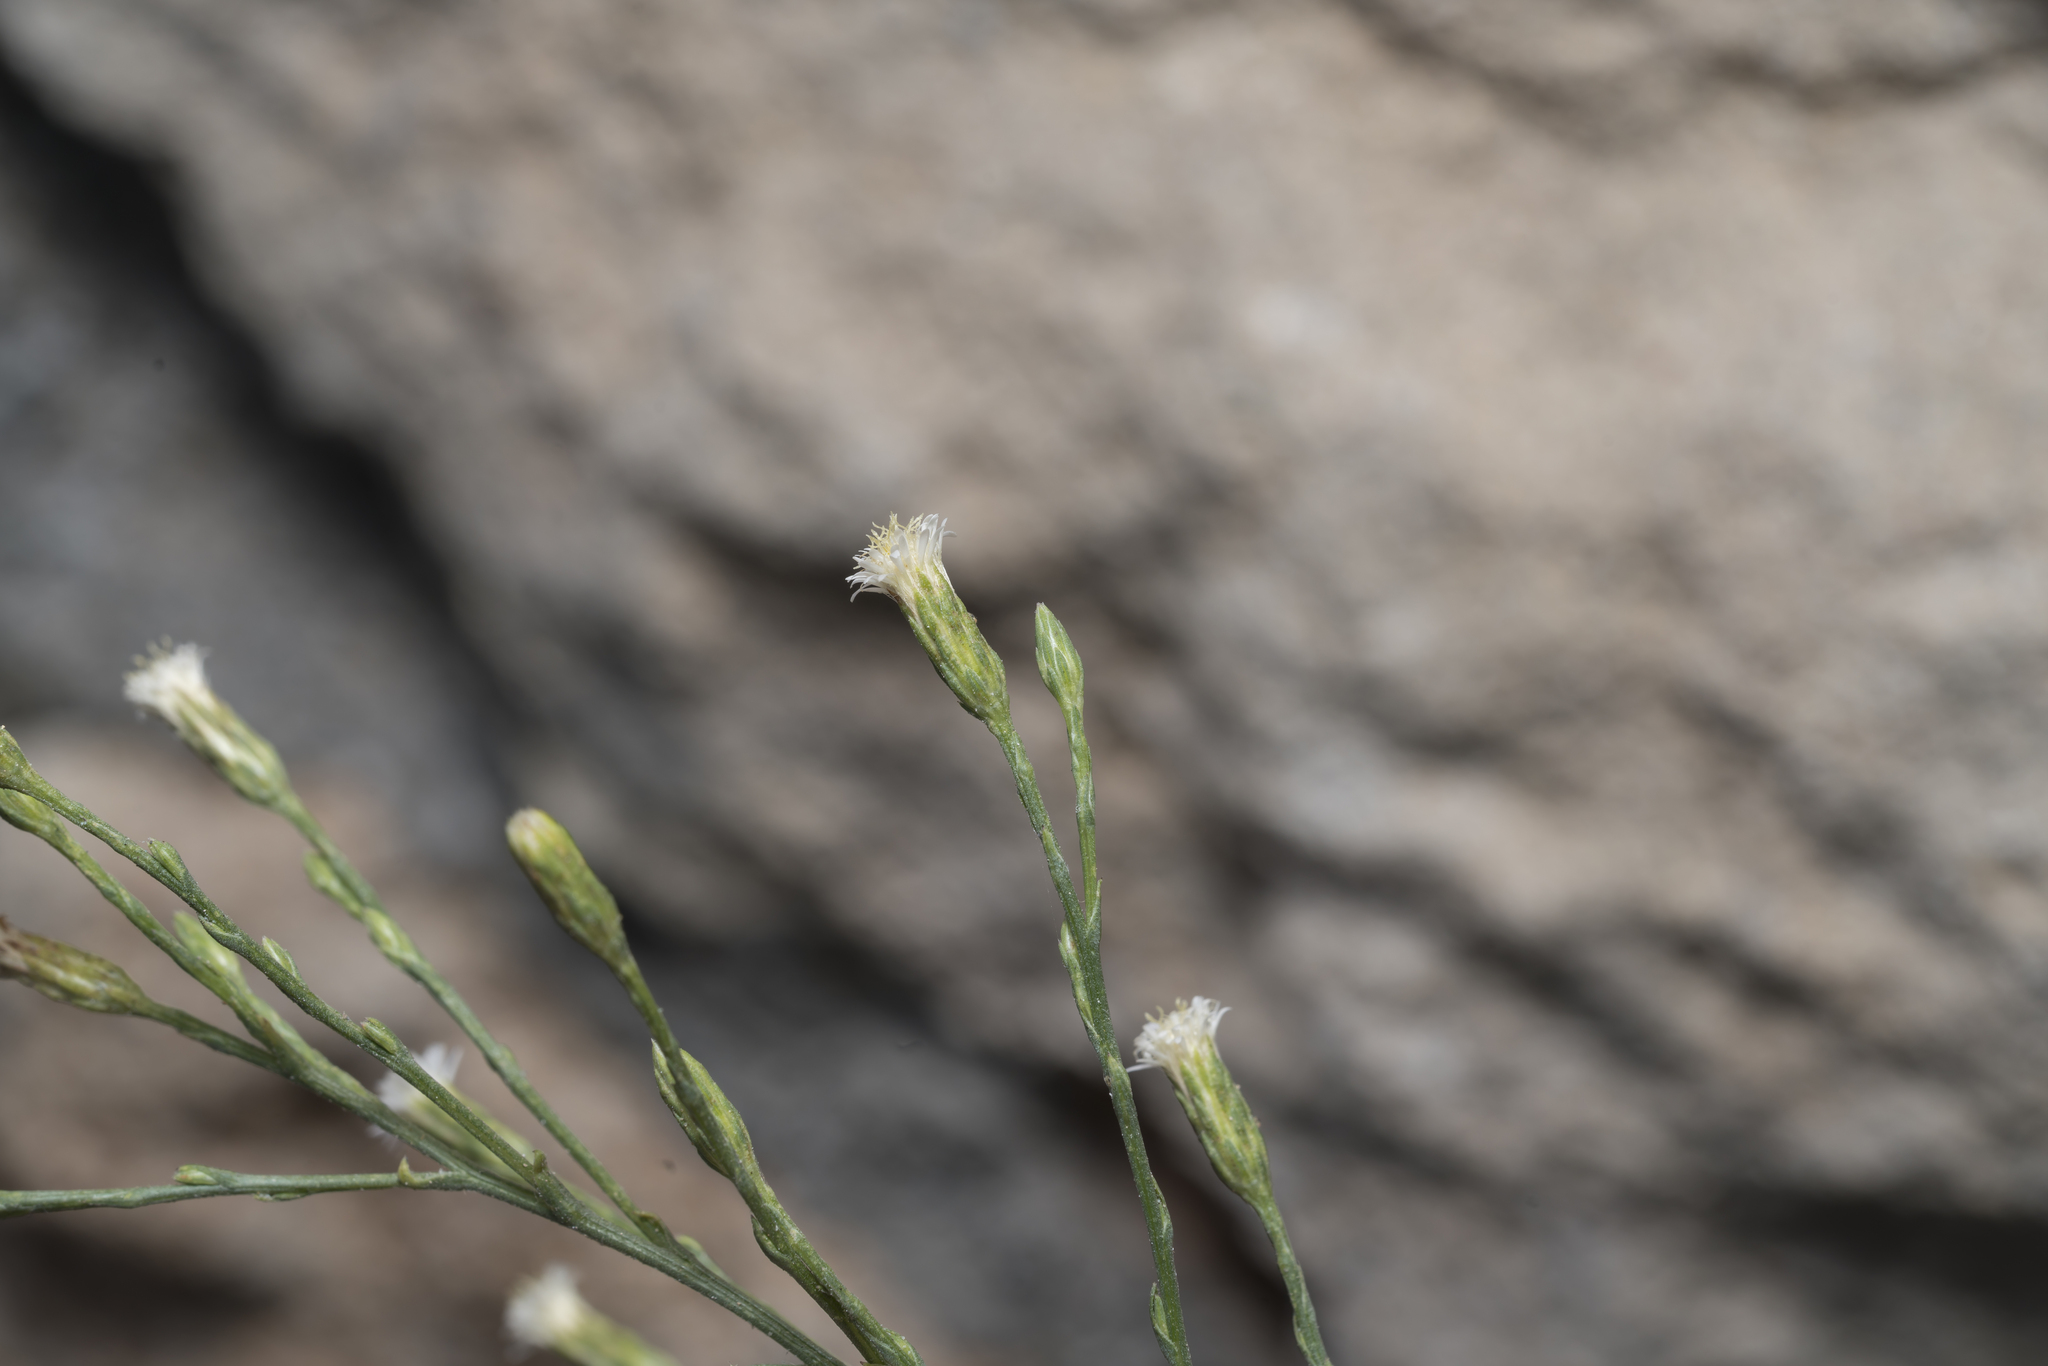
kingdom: Plantae
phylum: Tracheophyta
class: Magnoliopsida
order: Asterales
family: Asteraceae
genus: Symphyotrichum
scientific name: Symphyotrichum squamatum
